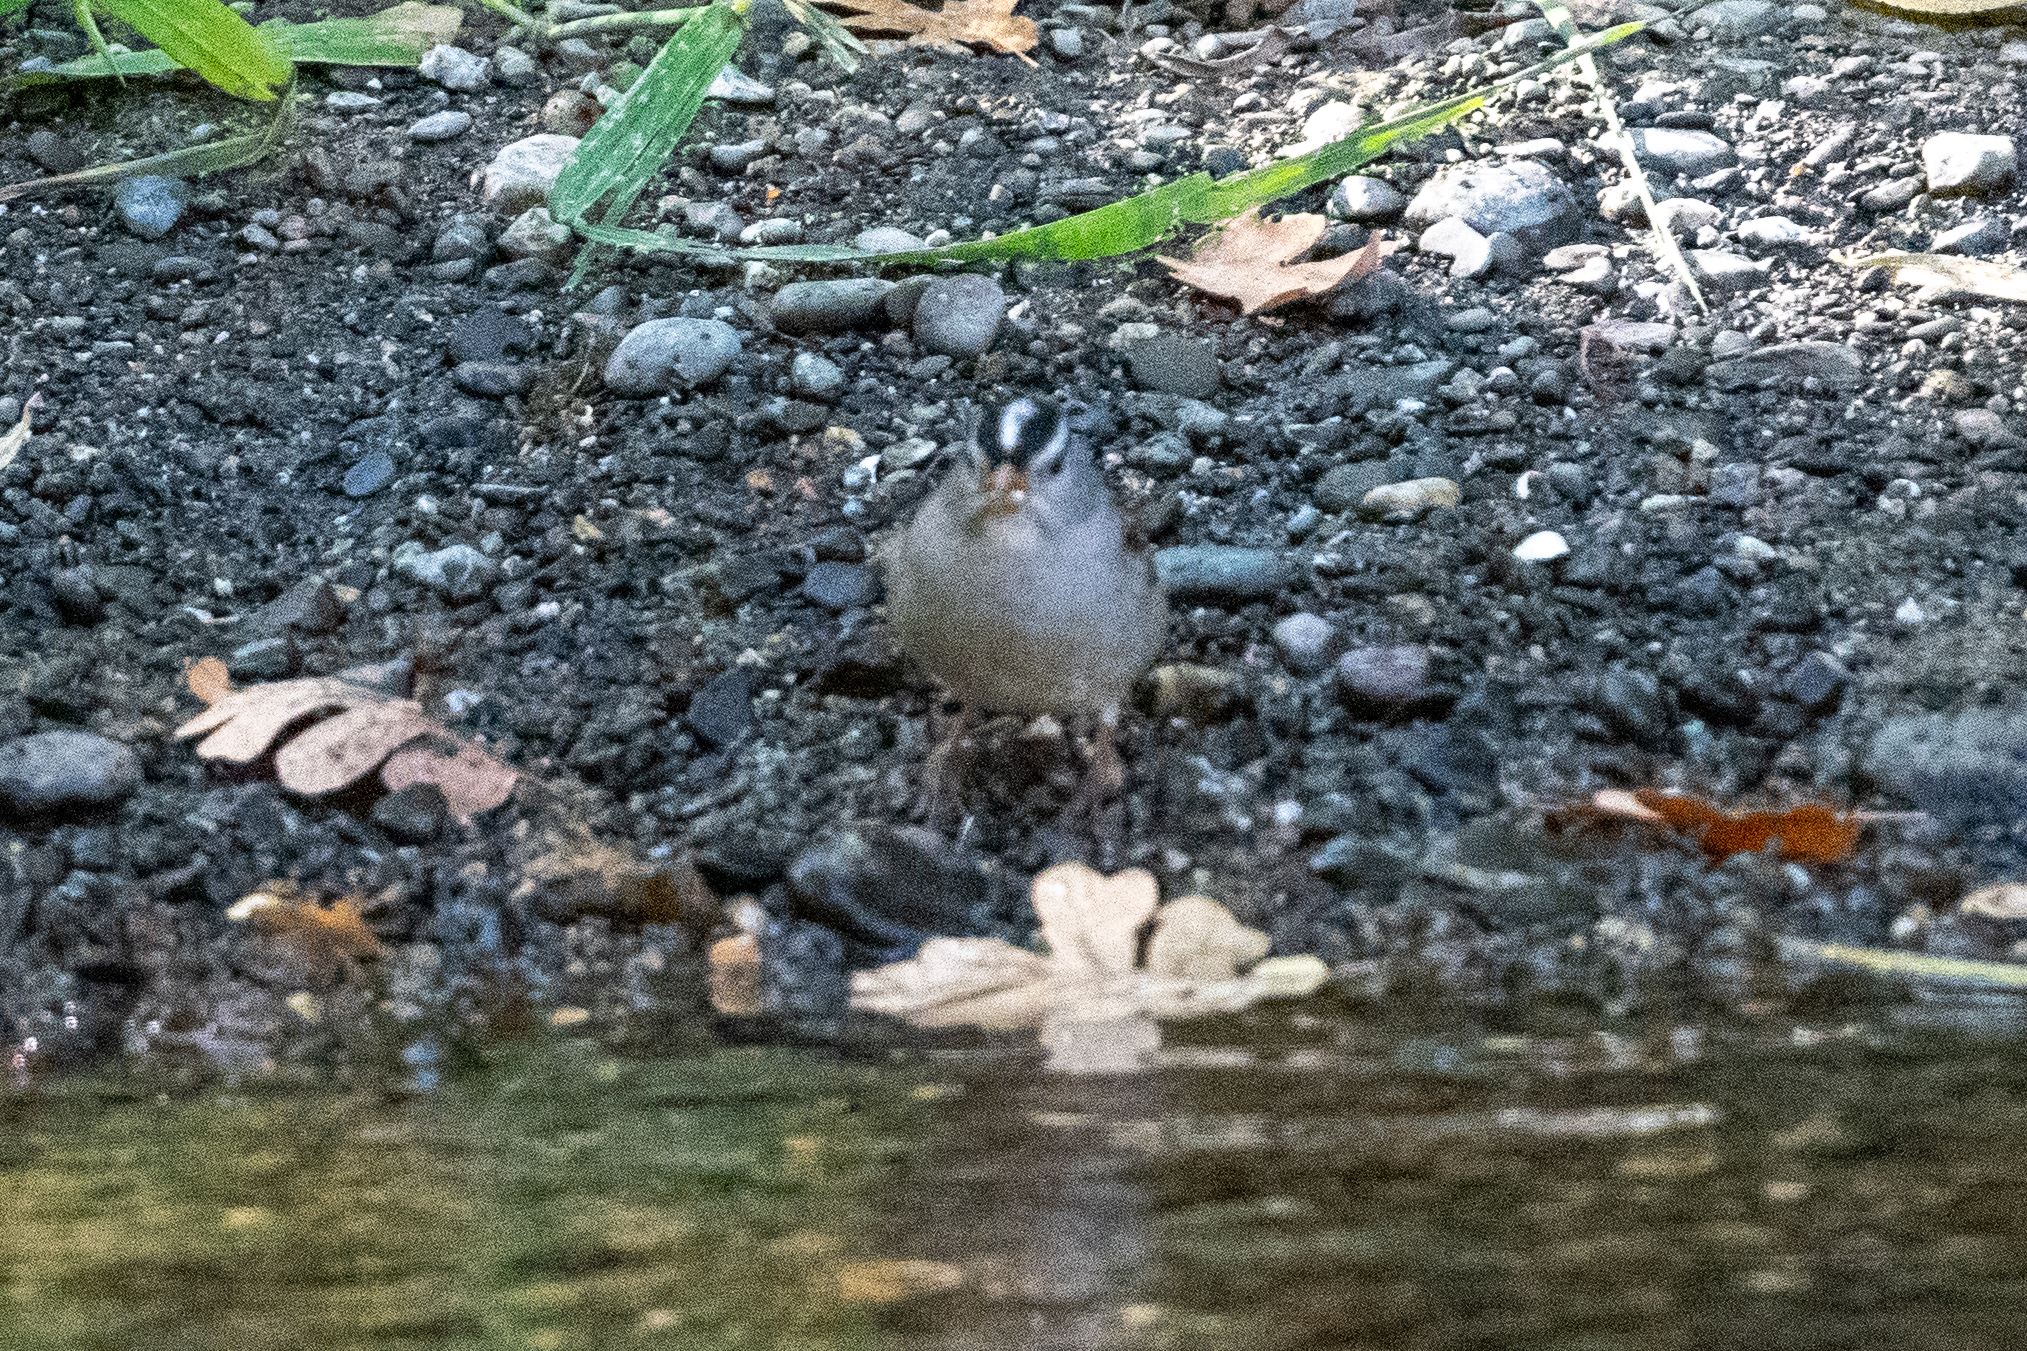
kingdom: Animalia
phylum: Chordata
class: Aves
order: Passeriformes
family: Passerellidae
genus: Zonotrichia
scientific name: Zonotrichia leucophrys
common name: White-crowned sparrow
